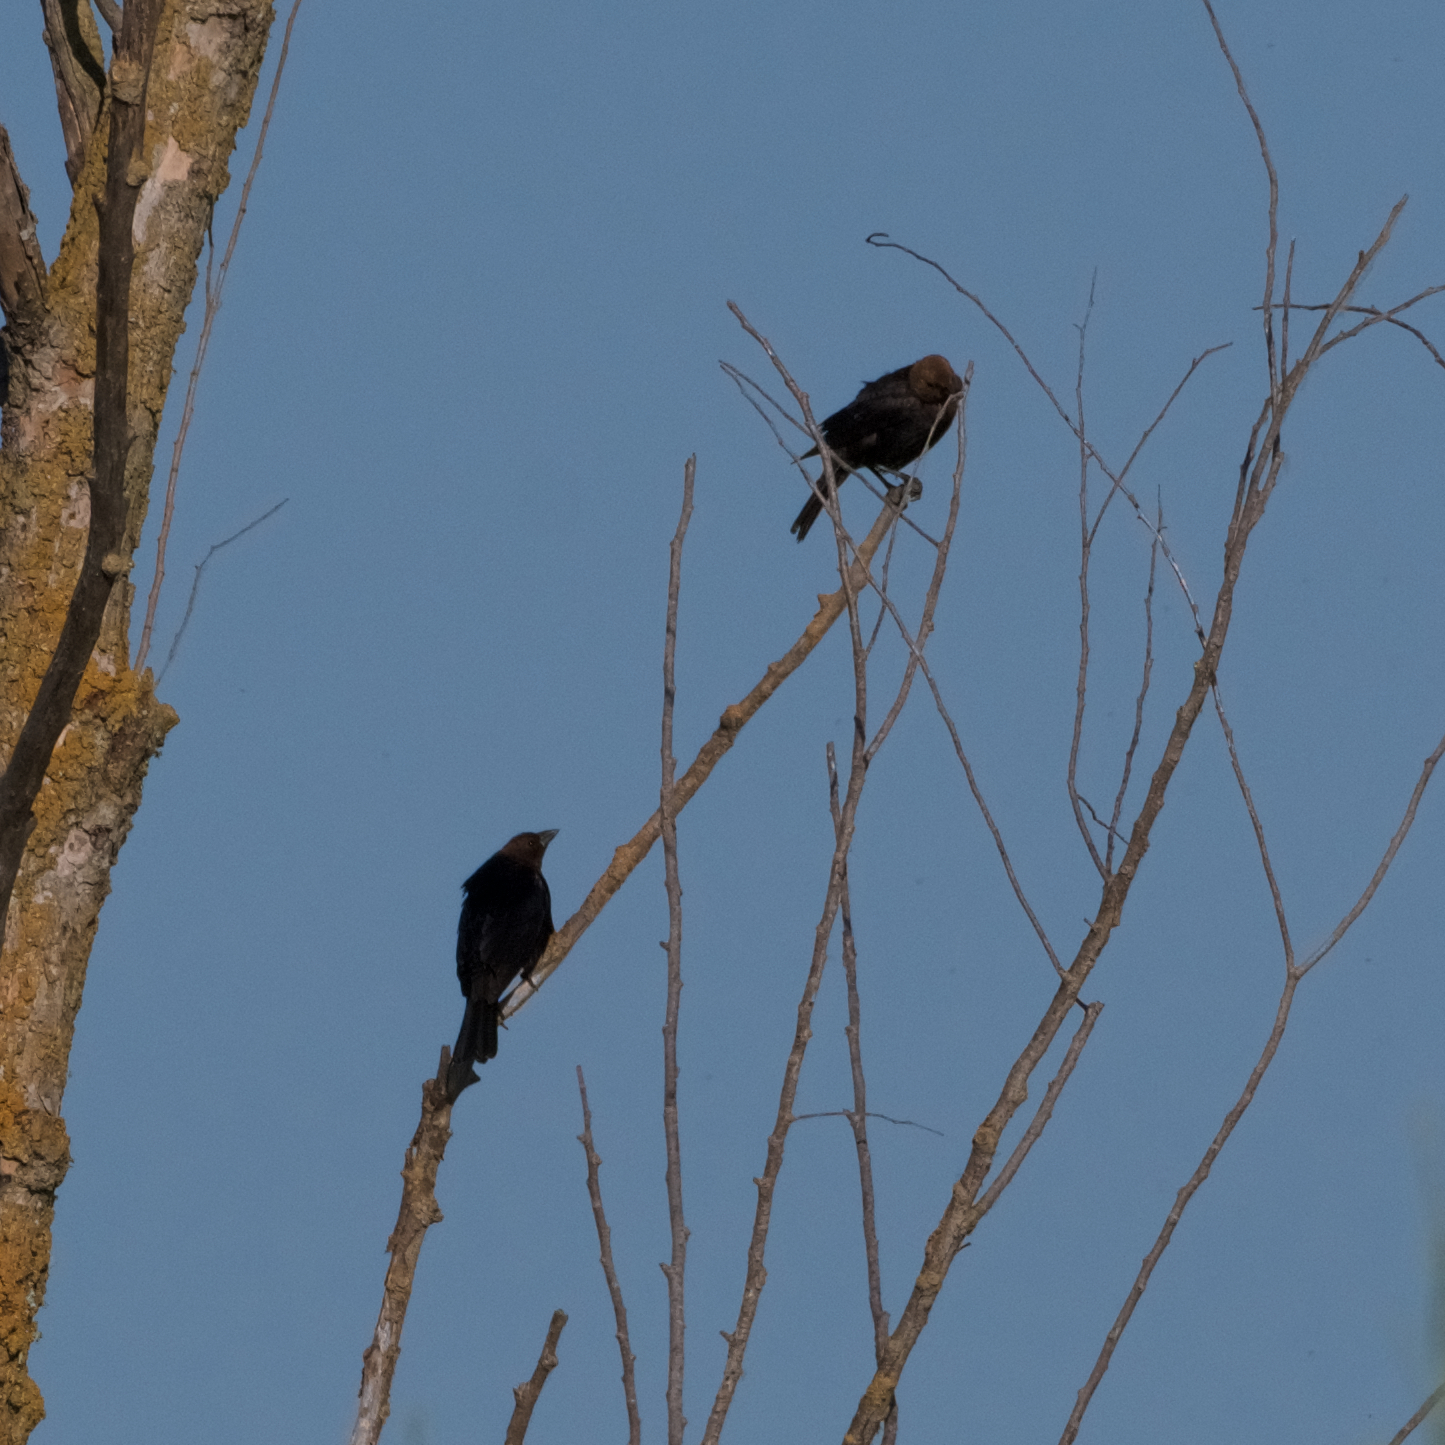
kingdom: Animalia
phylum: Chordata
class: Aves
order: Passeriformes
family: Icteridae
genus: Molothrus
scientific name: Molothrus ater
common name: Brown-headed cowbird
